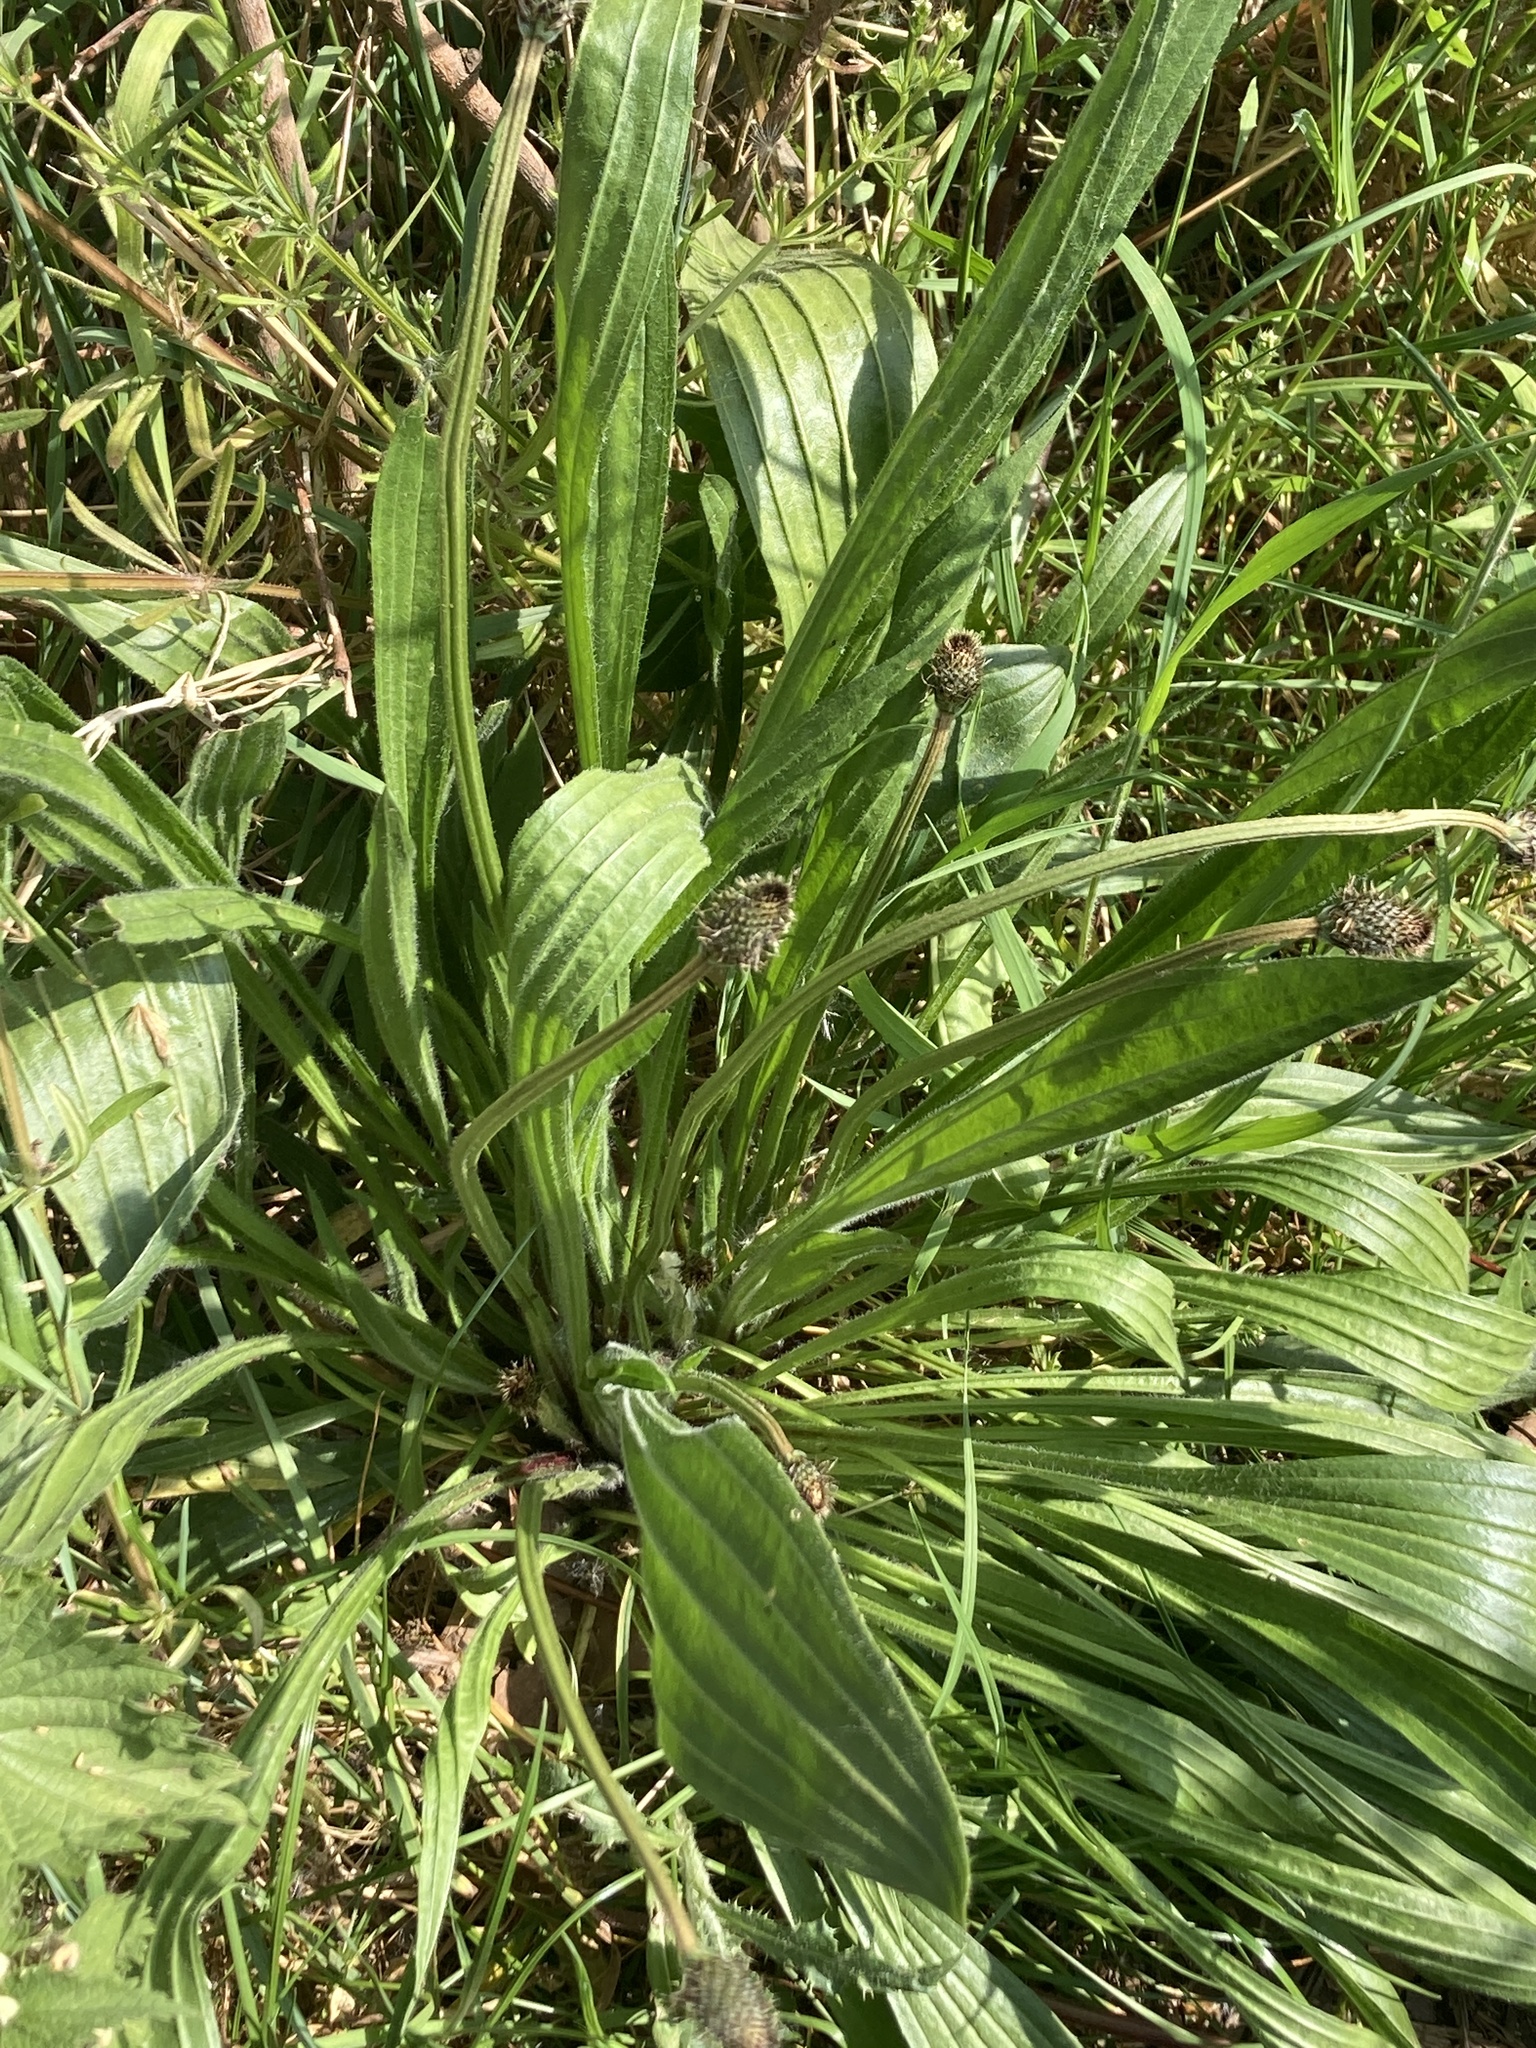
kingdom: Plantae
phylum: Tracheophyta
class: Magnoliopsida
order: Lamiales
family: Plantaginaceae
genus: Plantago
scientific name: Plantago lanceolata
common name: Ribwort plantain
